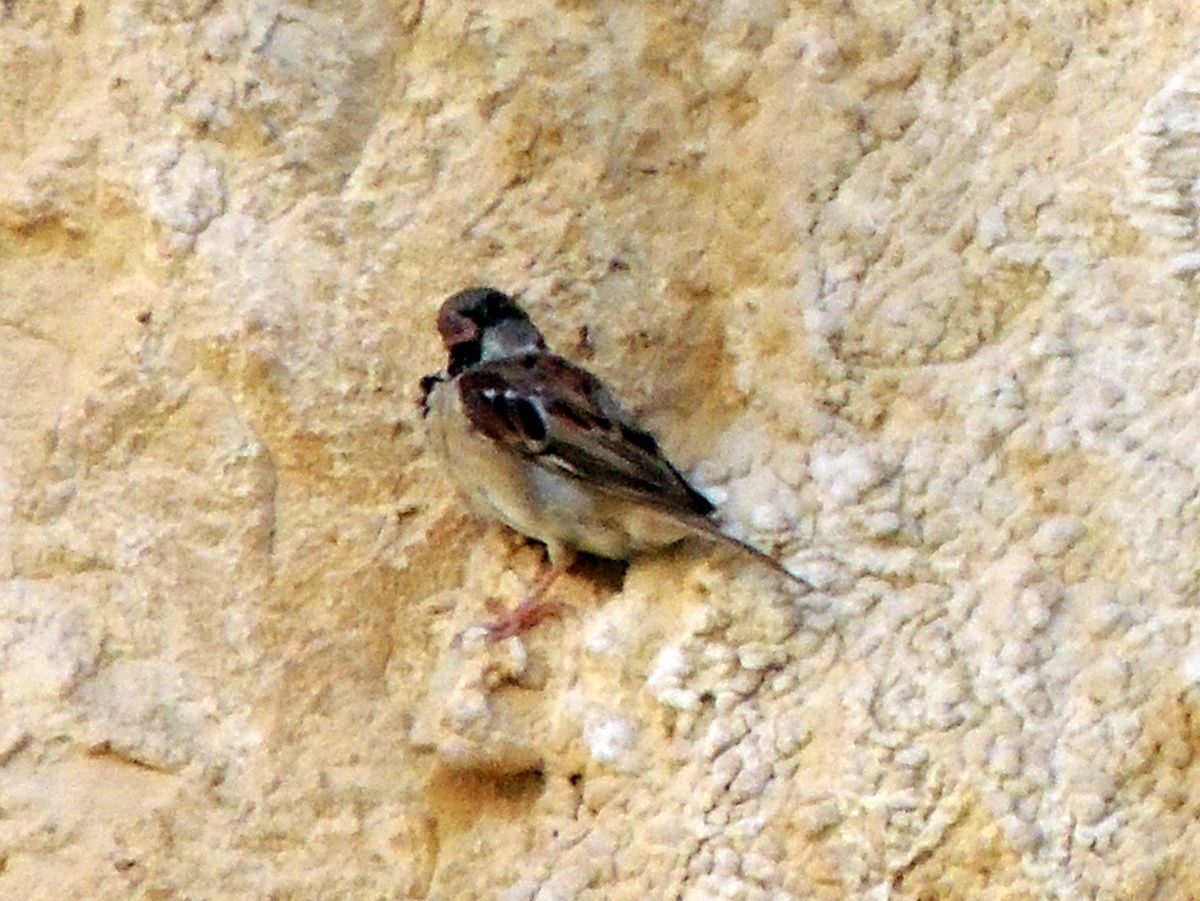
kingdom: Animalia
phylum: Chordata
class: Aves
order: Passeriformes
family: Passeridae
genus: Passer
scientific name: Passer domesticus
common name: House sparrow
